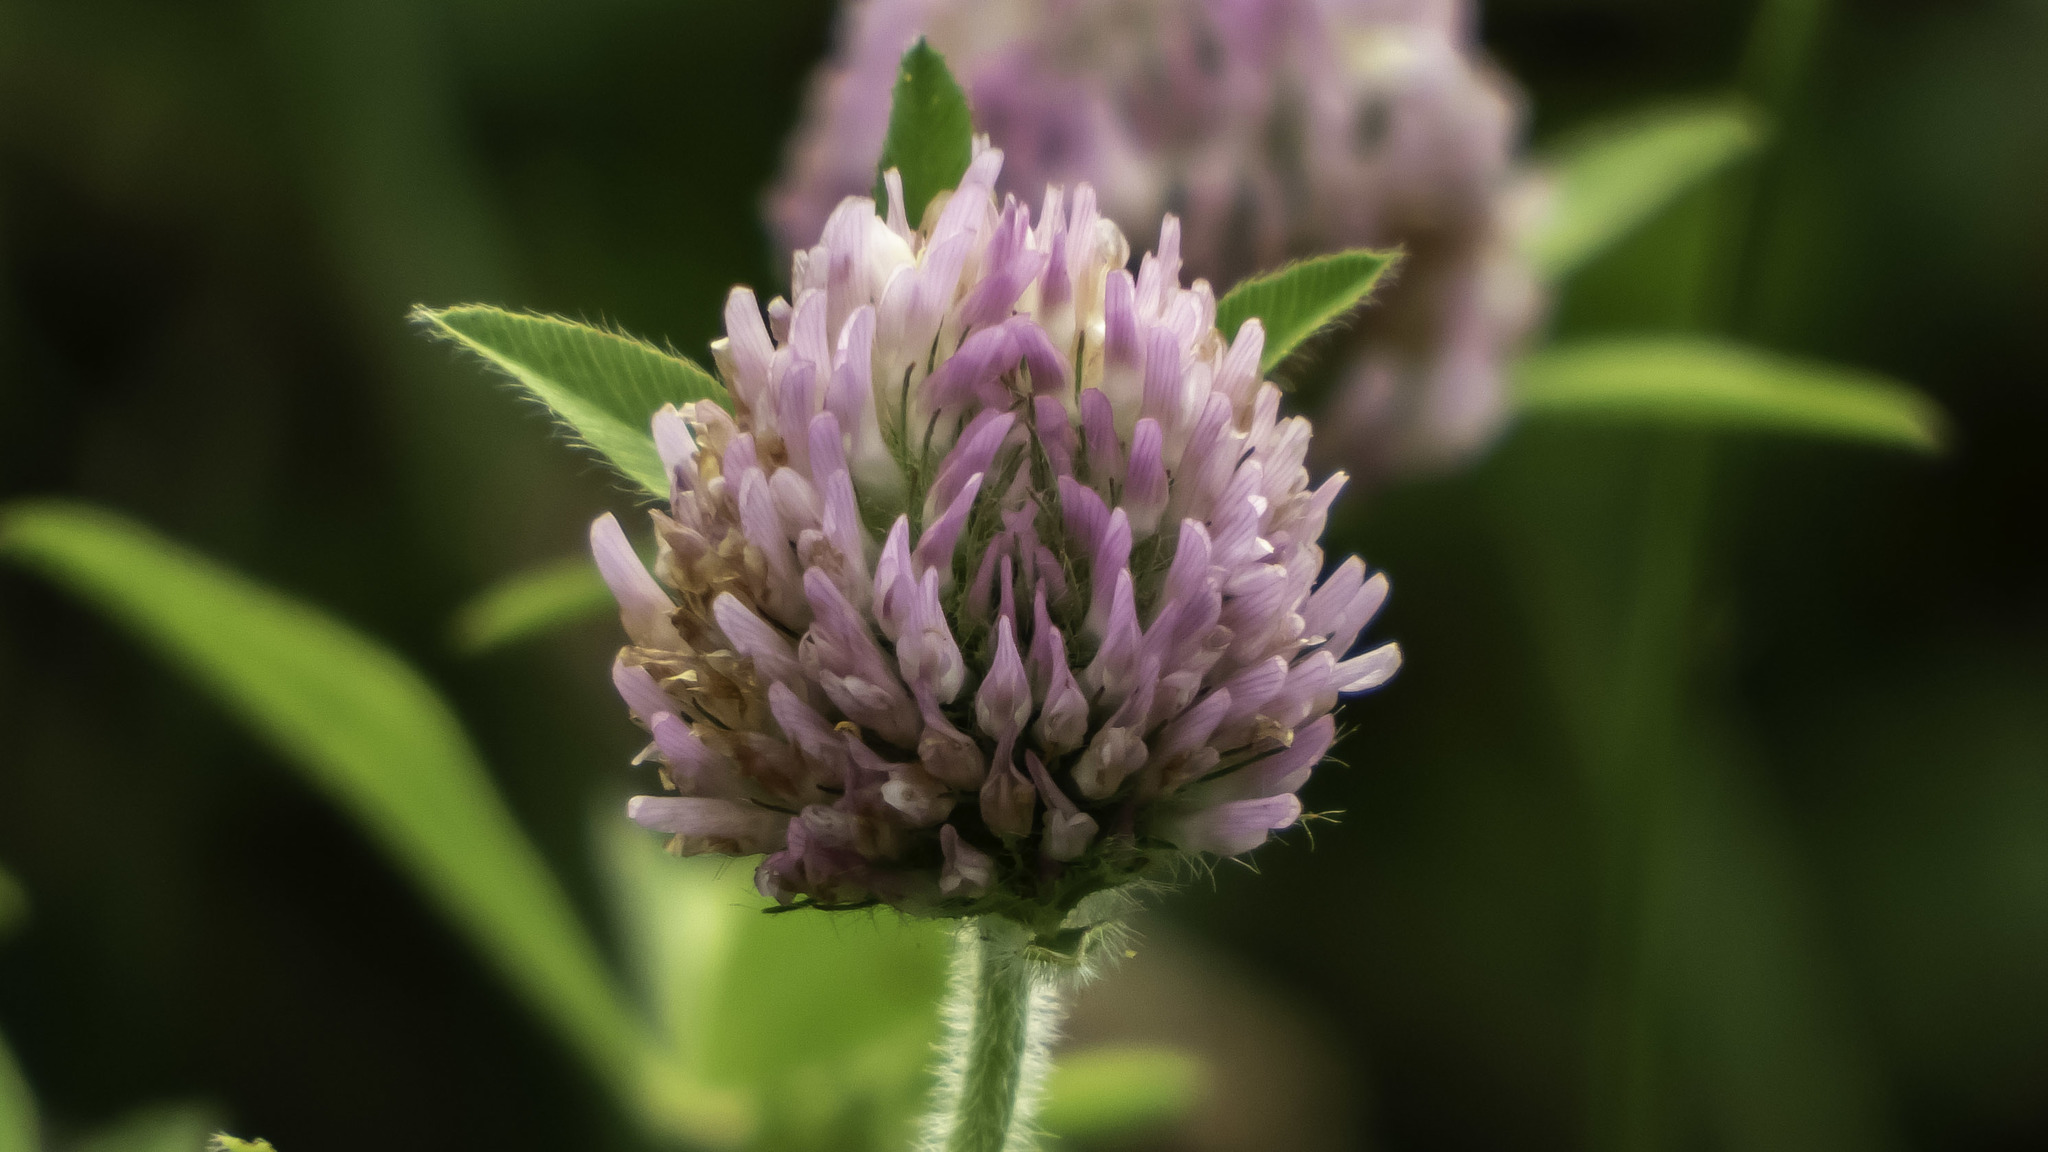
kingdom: Plantae
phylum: Tracheophyta
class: Magnoliopsida
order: Fabales
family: Fabaceae
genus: Trifolium
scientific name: Trifolium pratense
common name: Red clover
